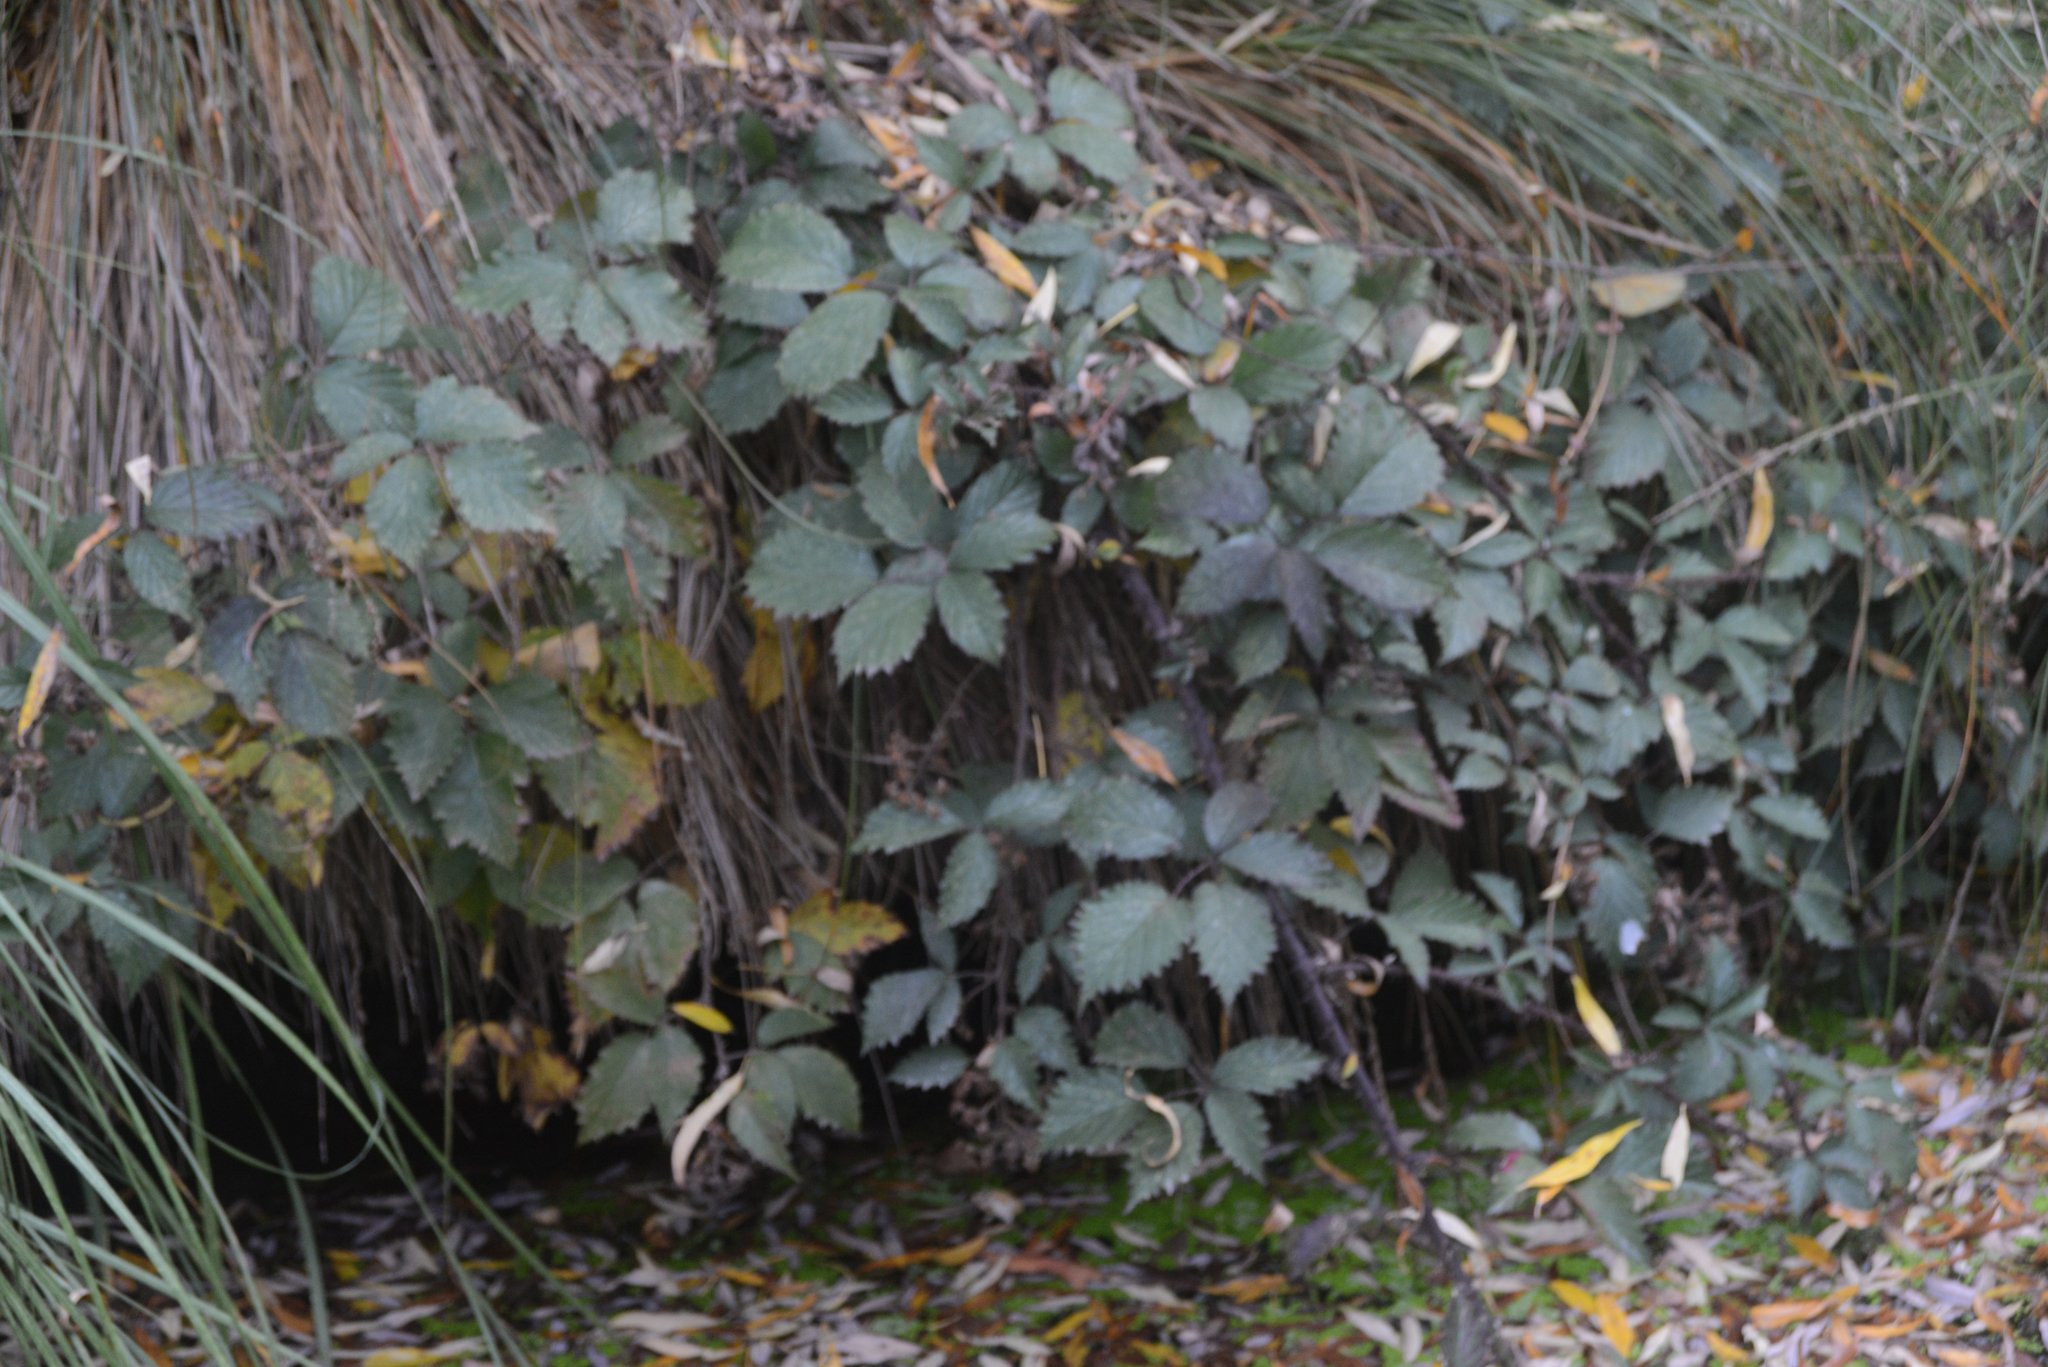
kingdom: Plantae
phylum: Tracheophyta
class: Magnoliopsida
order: Rosales
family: Rosaceae
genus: Rubus
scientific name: Rubus
